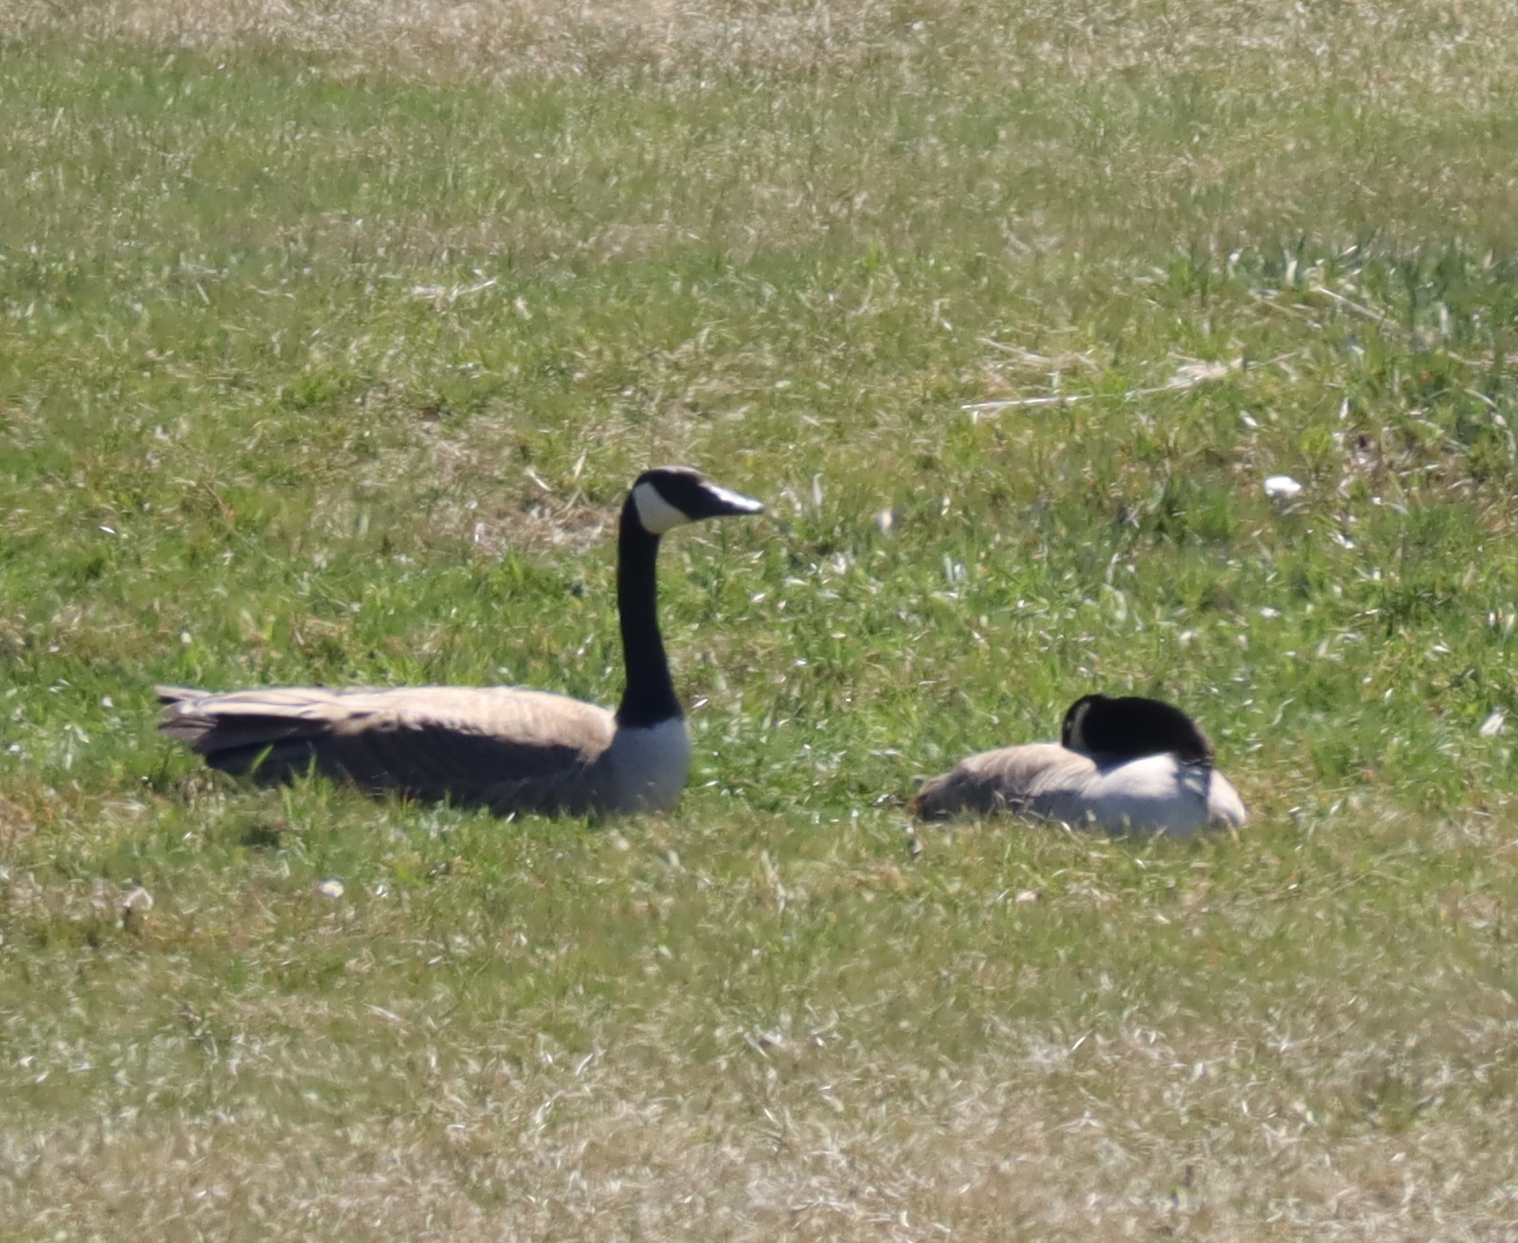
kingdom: Animalia
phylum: Chordata
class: Aves
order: Anseriformes
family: Anatidae
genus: Branta
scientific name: Branta canadensis
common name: Canada goose
